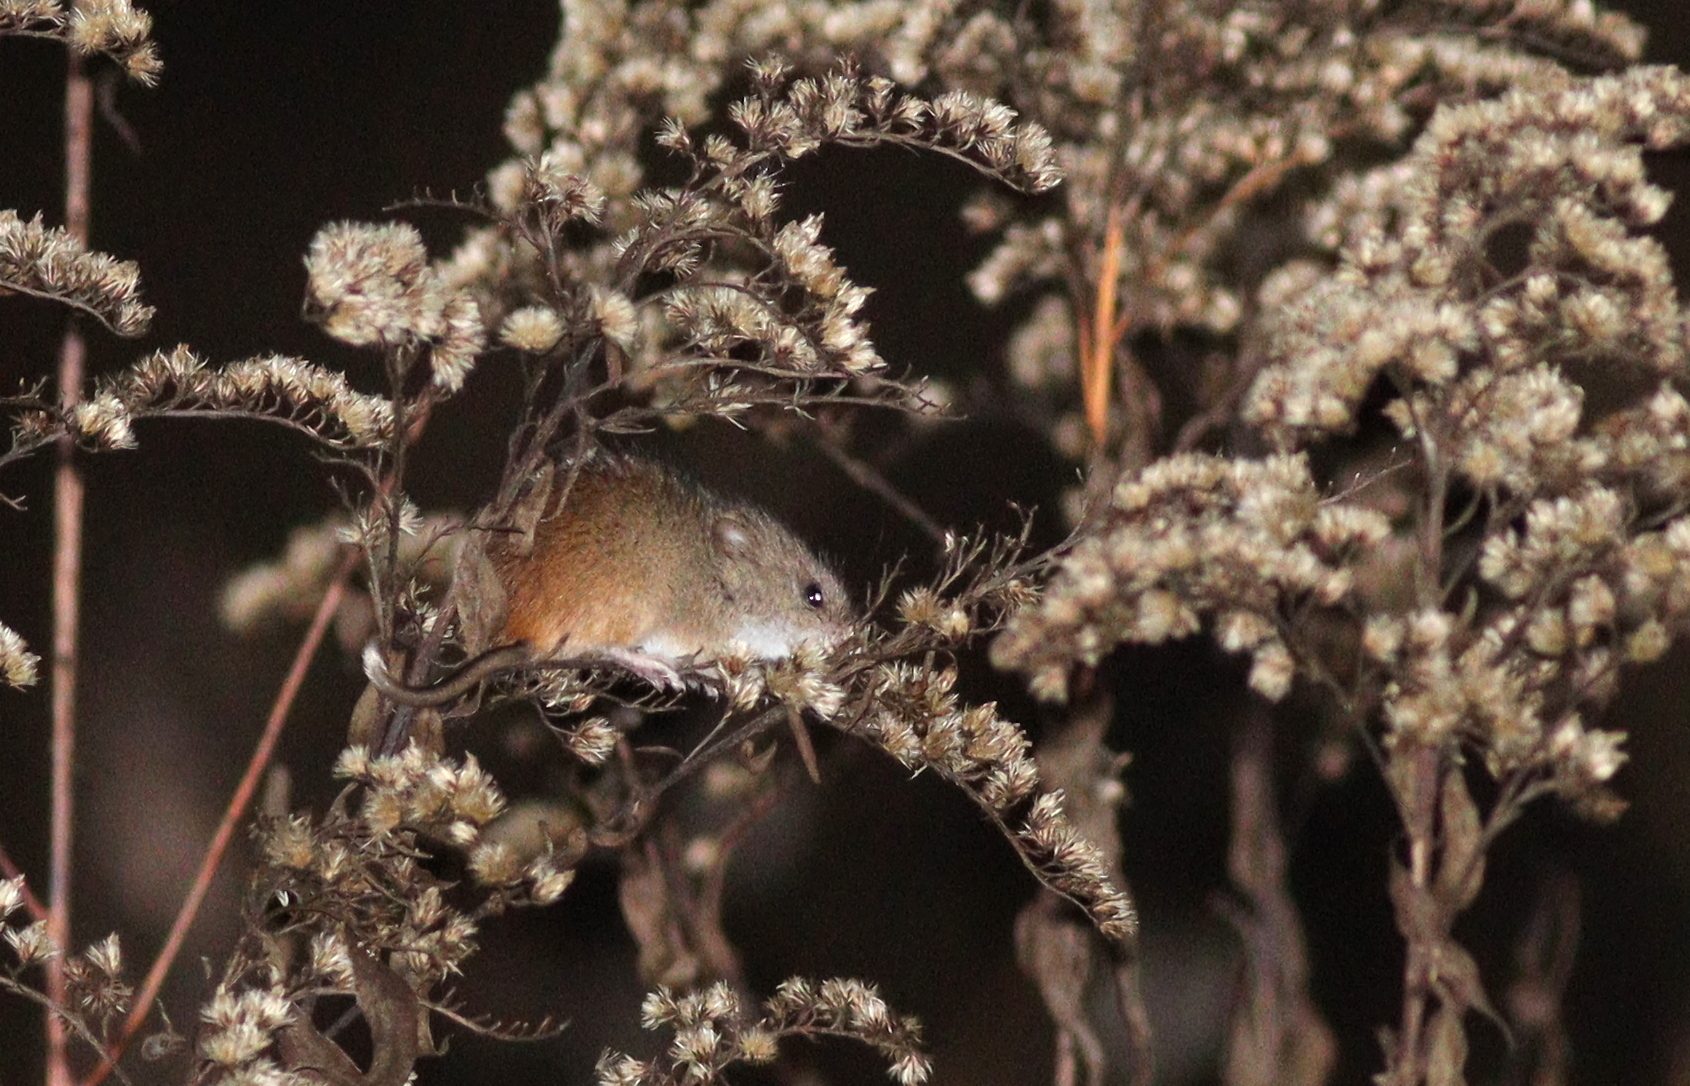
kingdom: Animalia
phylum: Chordata
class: Mammalia
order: Rodentia
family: Muridae
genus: Micromys
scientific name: Micromys minutus
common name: Harvest mouse
